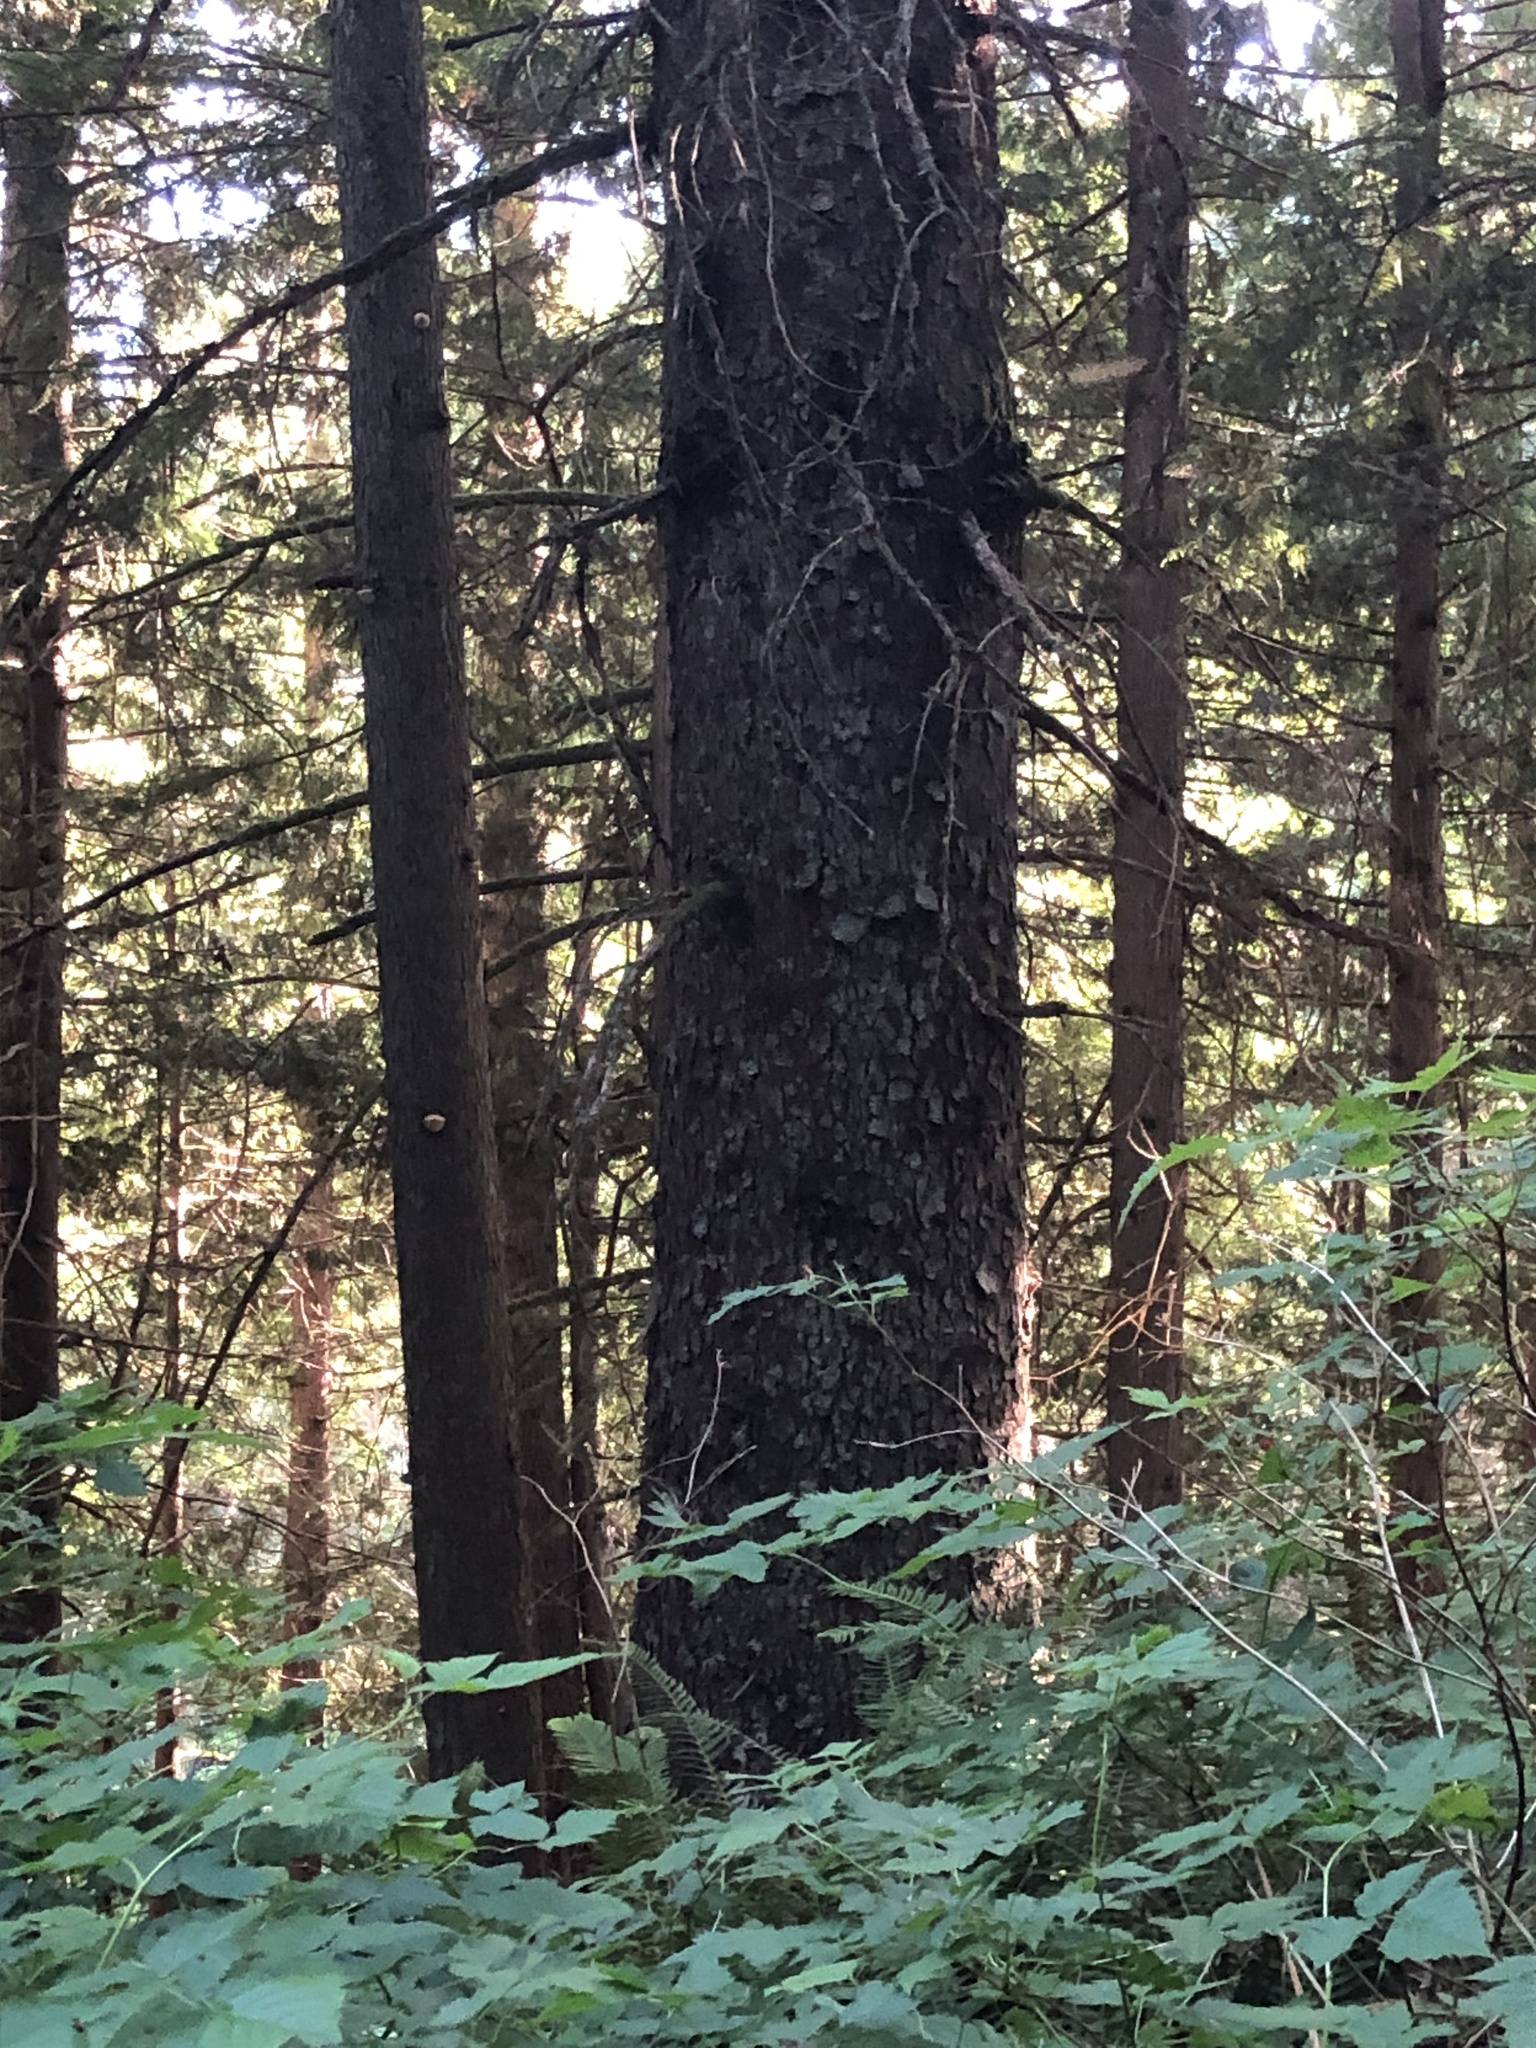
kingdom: Plantae
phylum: Tracheophyta
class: Pinopsida
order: Pinales
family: Pinaceae
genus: Picea
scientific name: Picea sitchensis
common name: Sitka spruce
